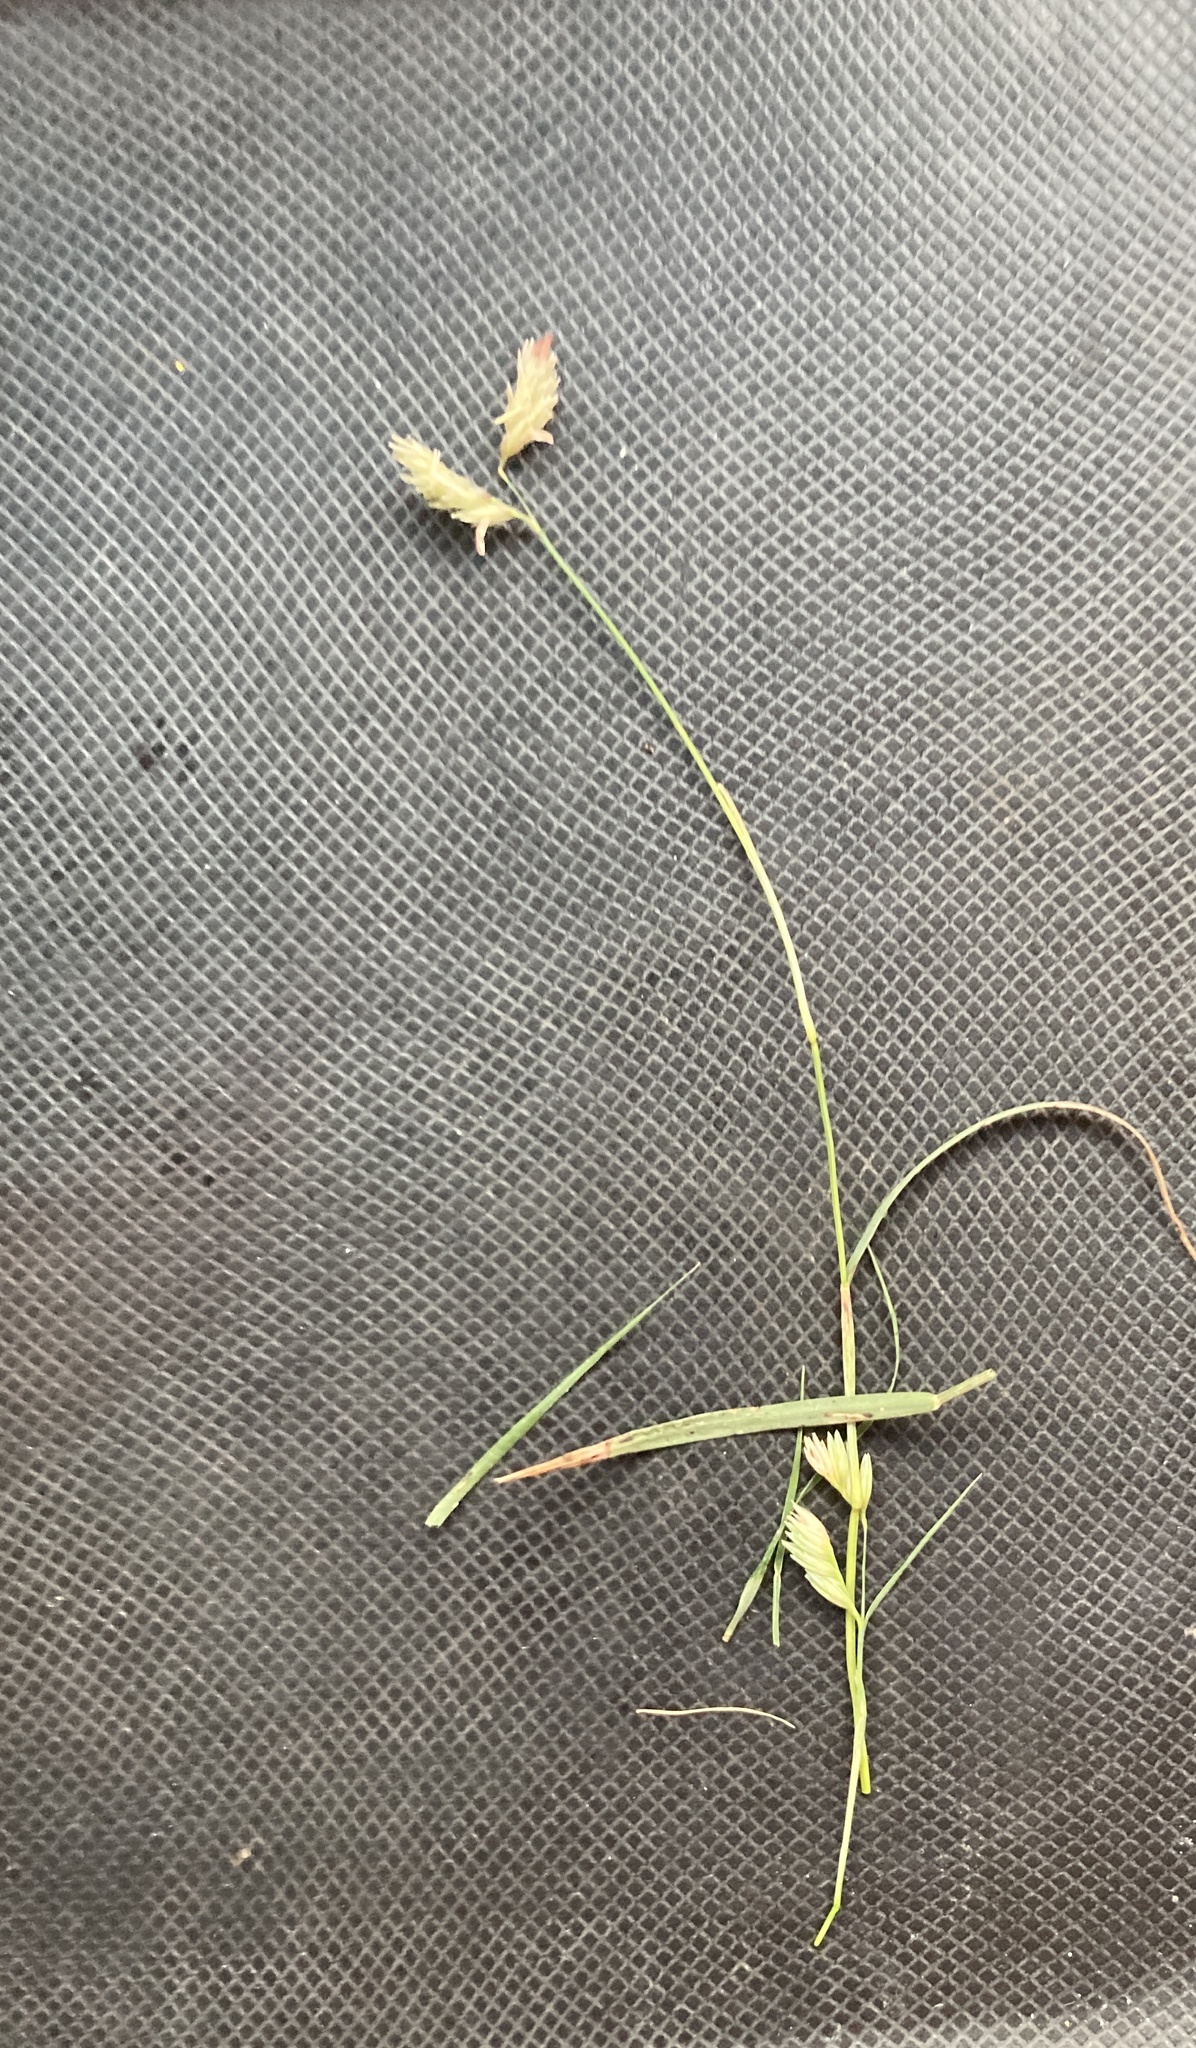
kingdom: Plantae
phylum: Tracheophyta
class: Liliopsida
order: Poales
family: Poaceae
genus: Bouteloua
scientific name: Bouteloua dactyloides
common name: Buffalo grass
